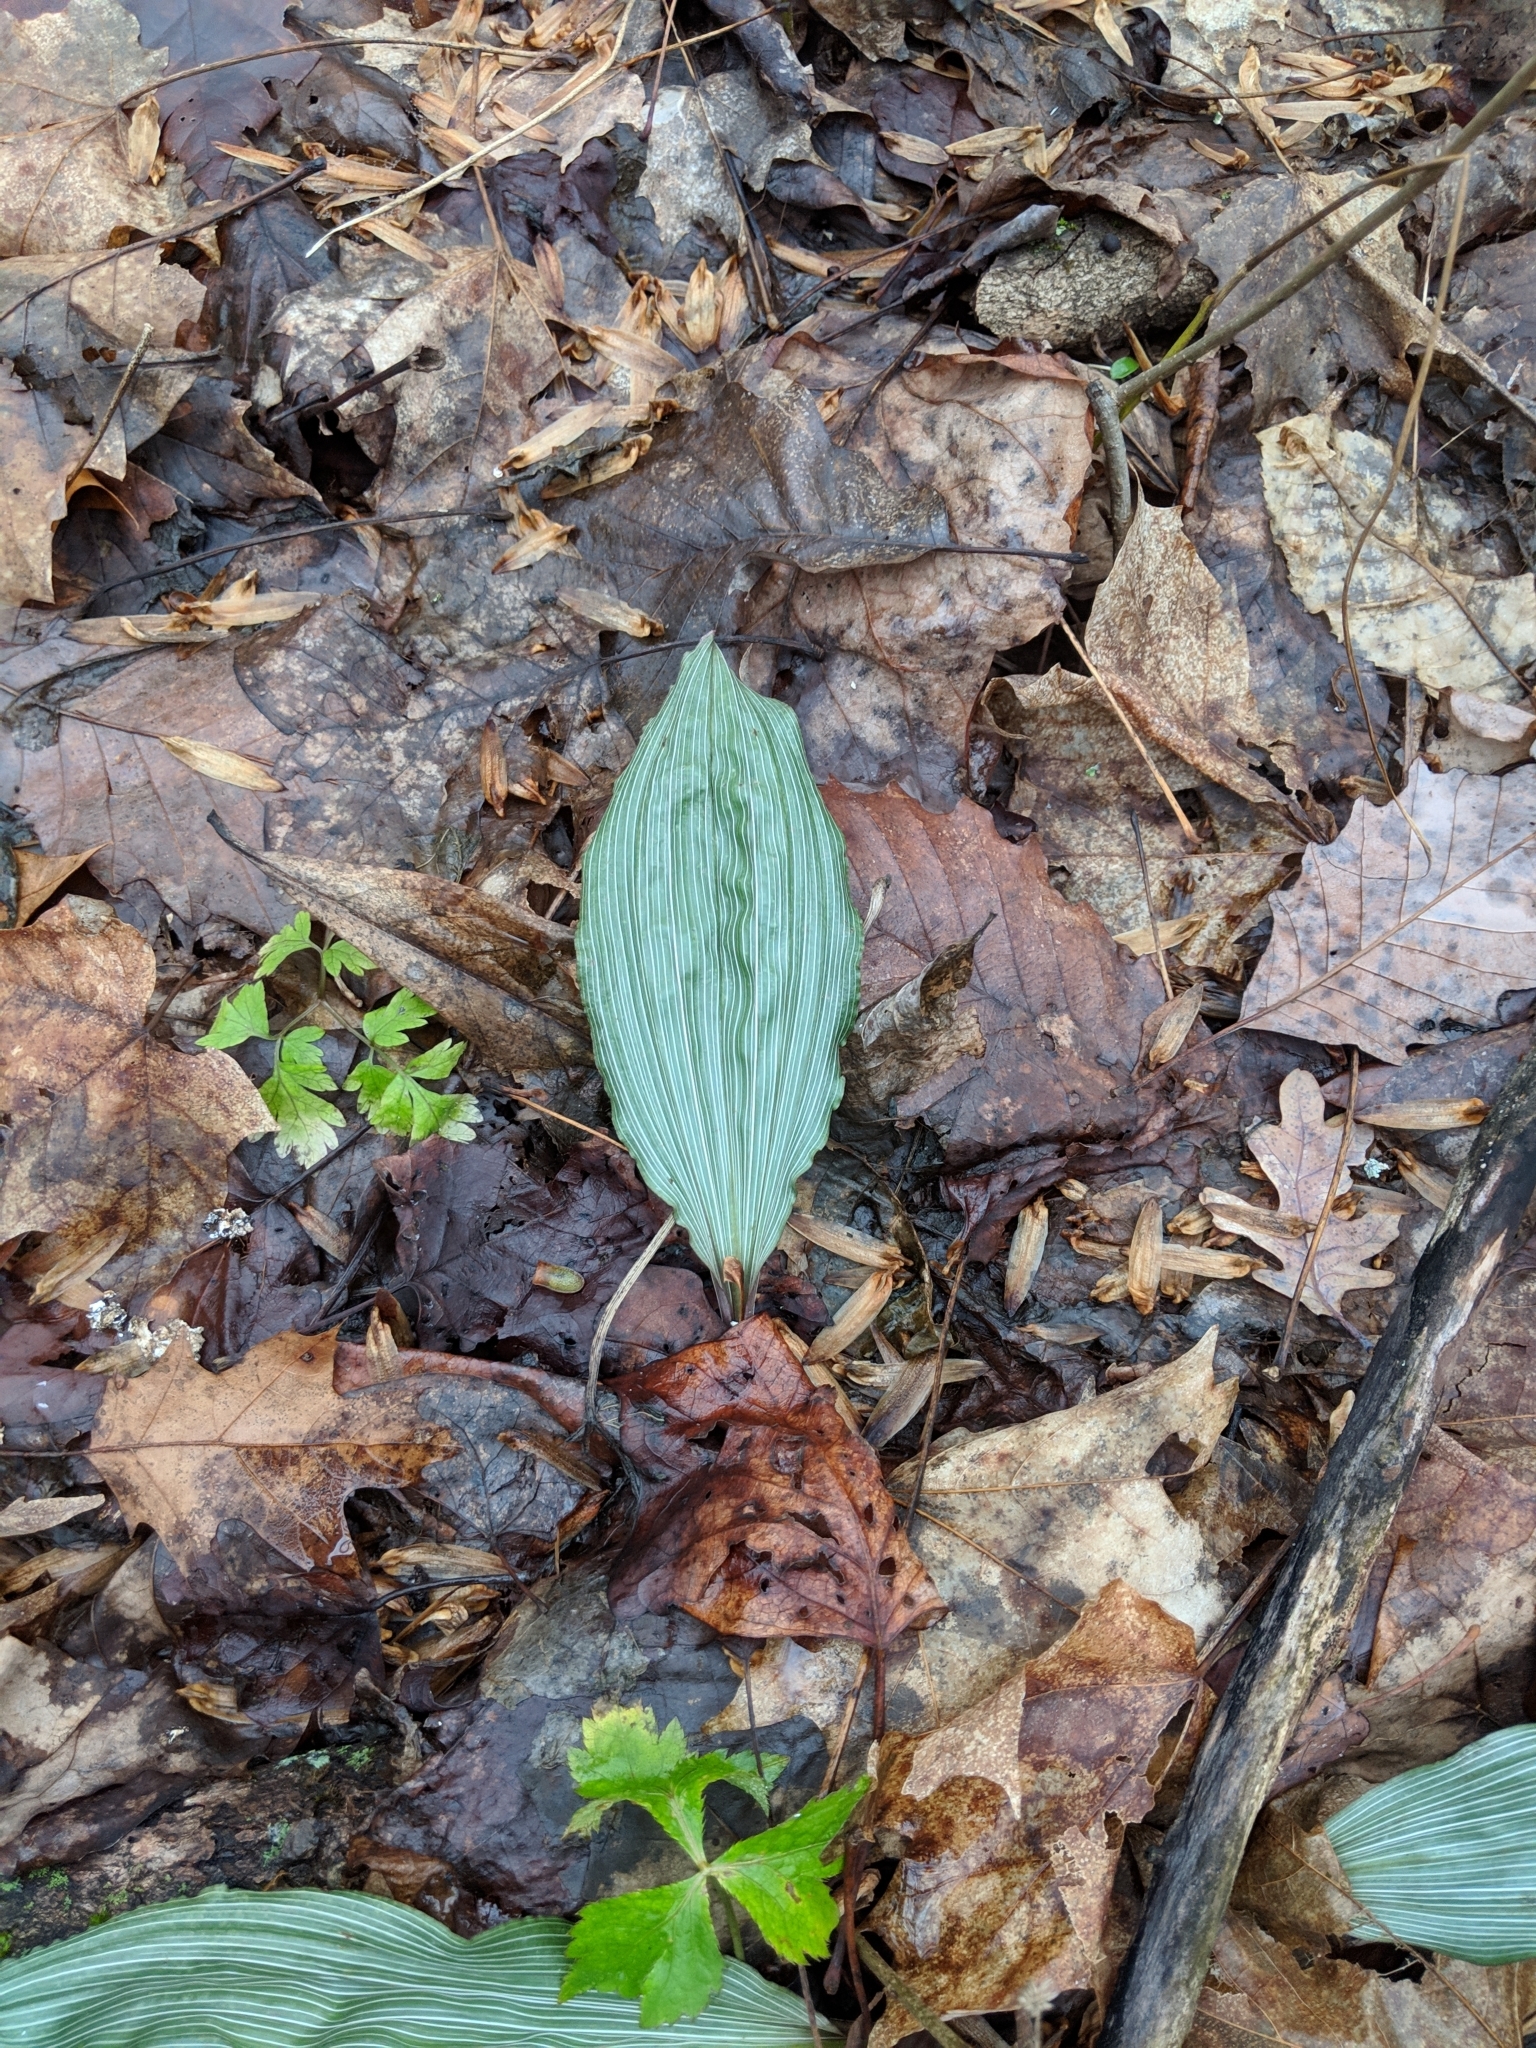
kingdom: Plantae
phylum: Tracheophyta
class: Liliopsida
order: Asparagales
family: Orchidaceae
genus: Aplectrum
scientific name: Aplectrum hyemale
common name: Adam-and-eve
